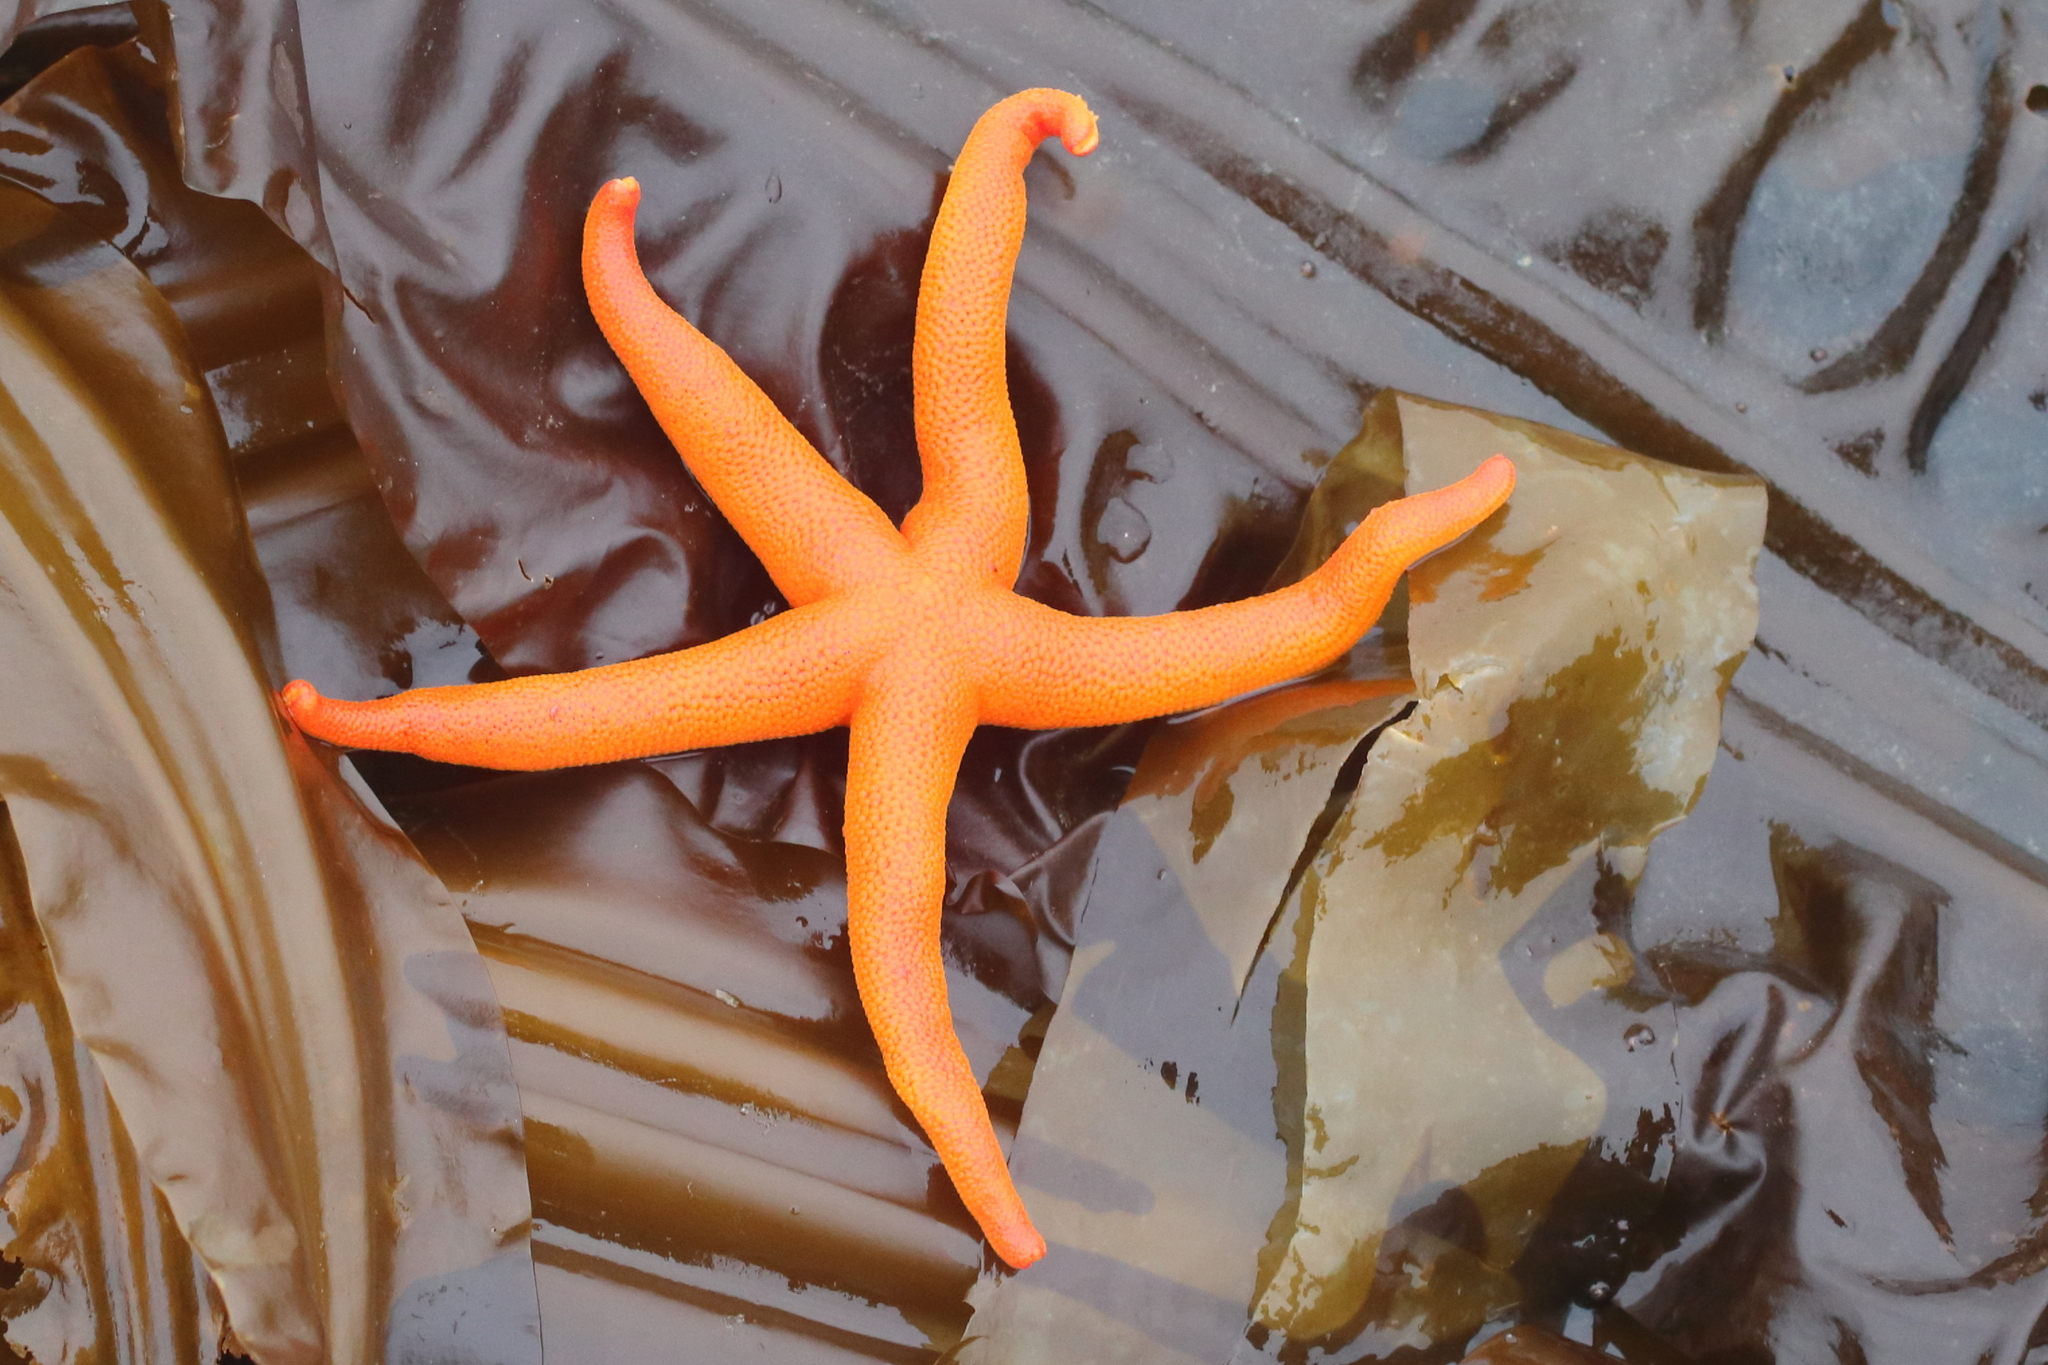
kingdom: Animalia
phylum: Echinodermata
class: Asteroidea
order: Spinulosida
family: Echinasteridae
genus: Henricia
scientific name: Henricia
